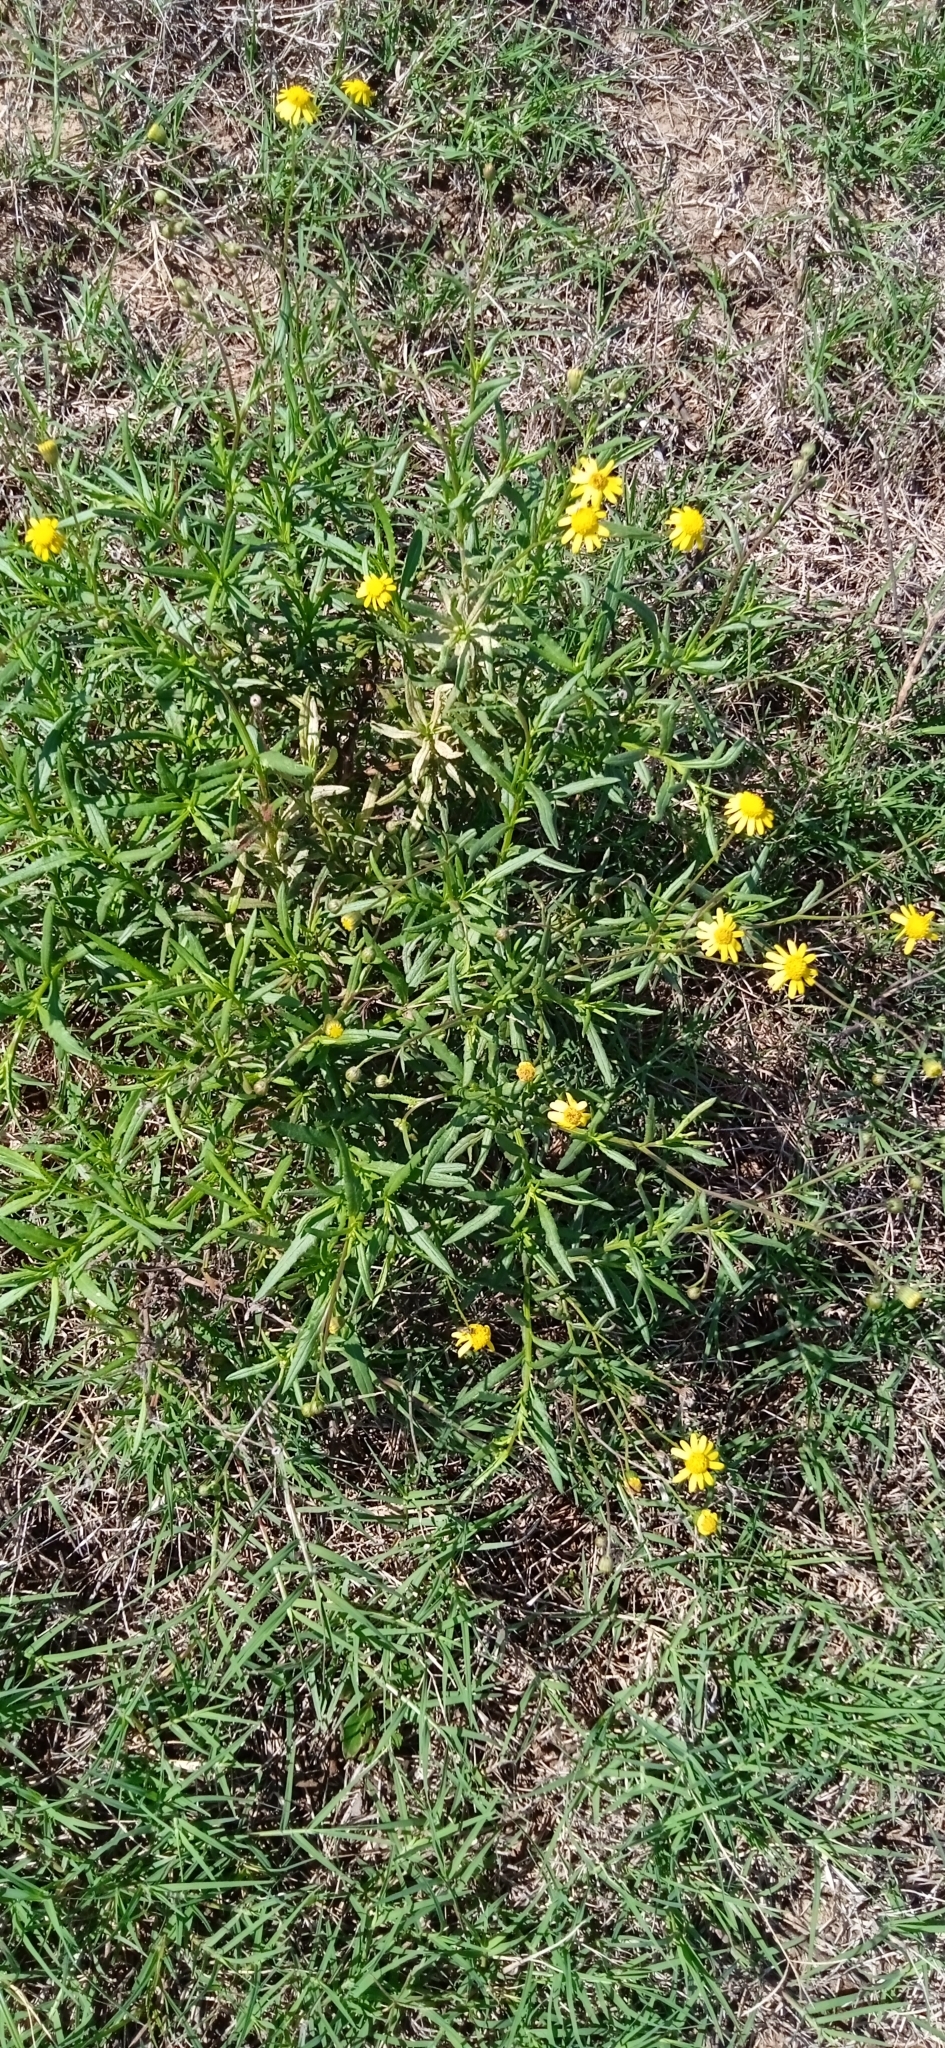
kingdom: Plantae
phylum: Tracheophyta
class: Magnoliopsida
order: Asterales
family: Asteraceae
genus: Senecio
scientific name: Senecio madagascariensis
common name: Madagascar ragwort
